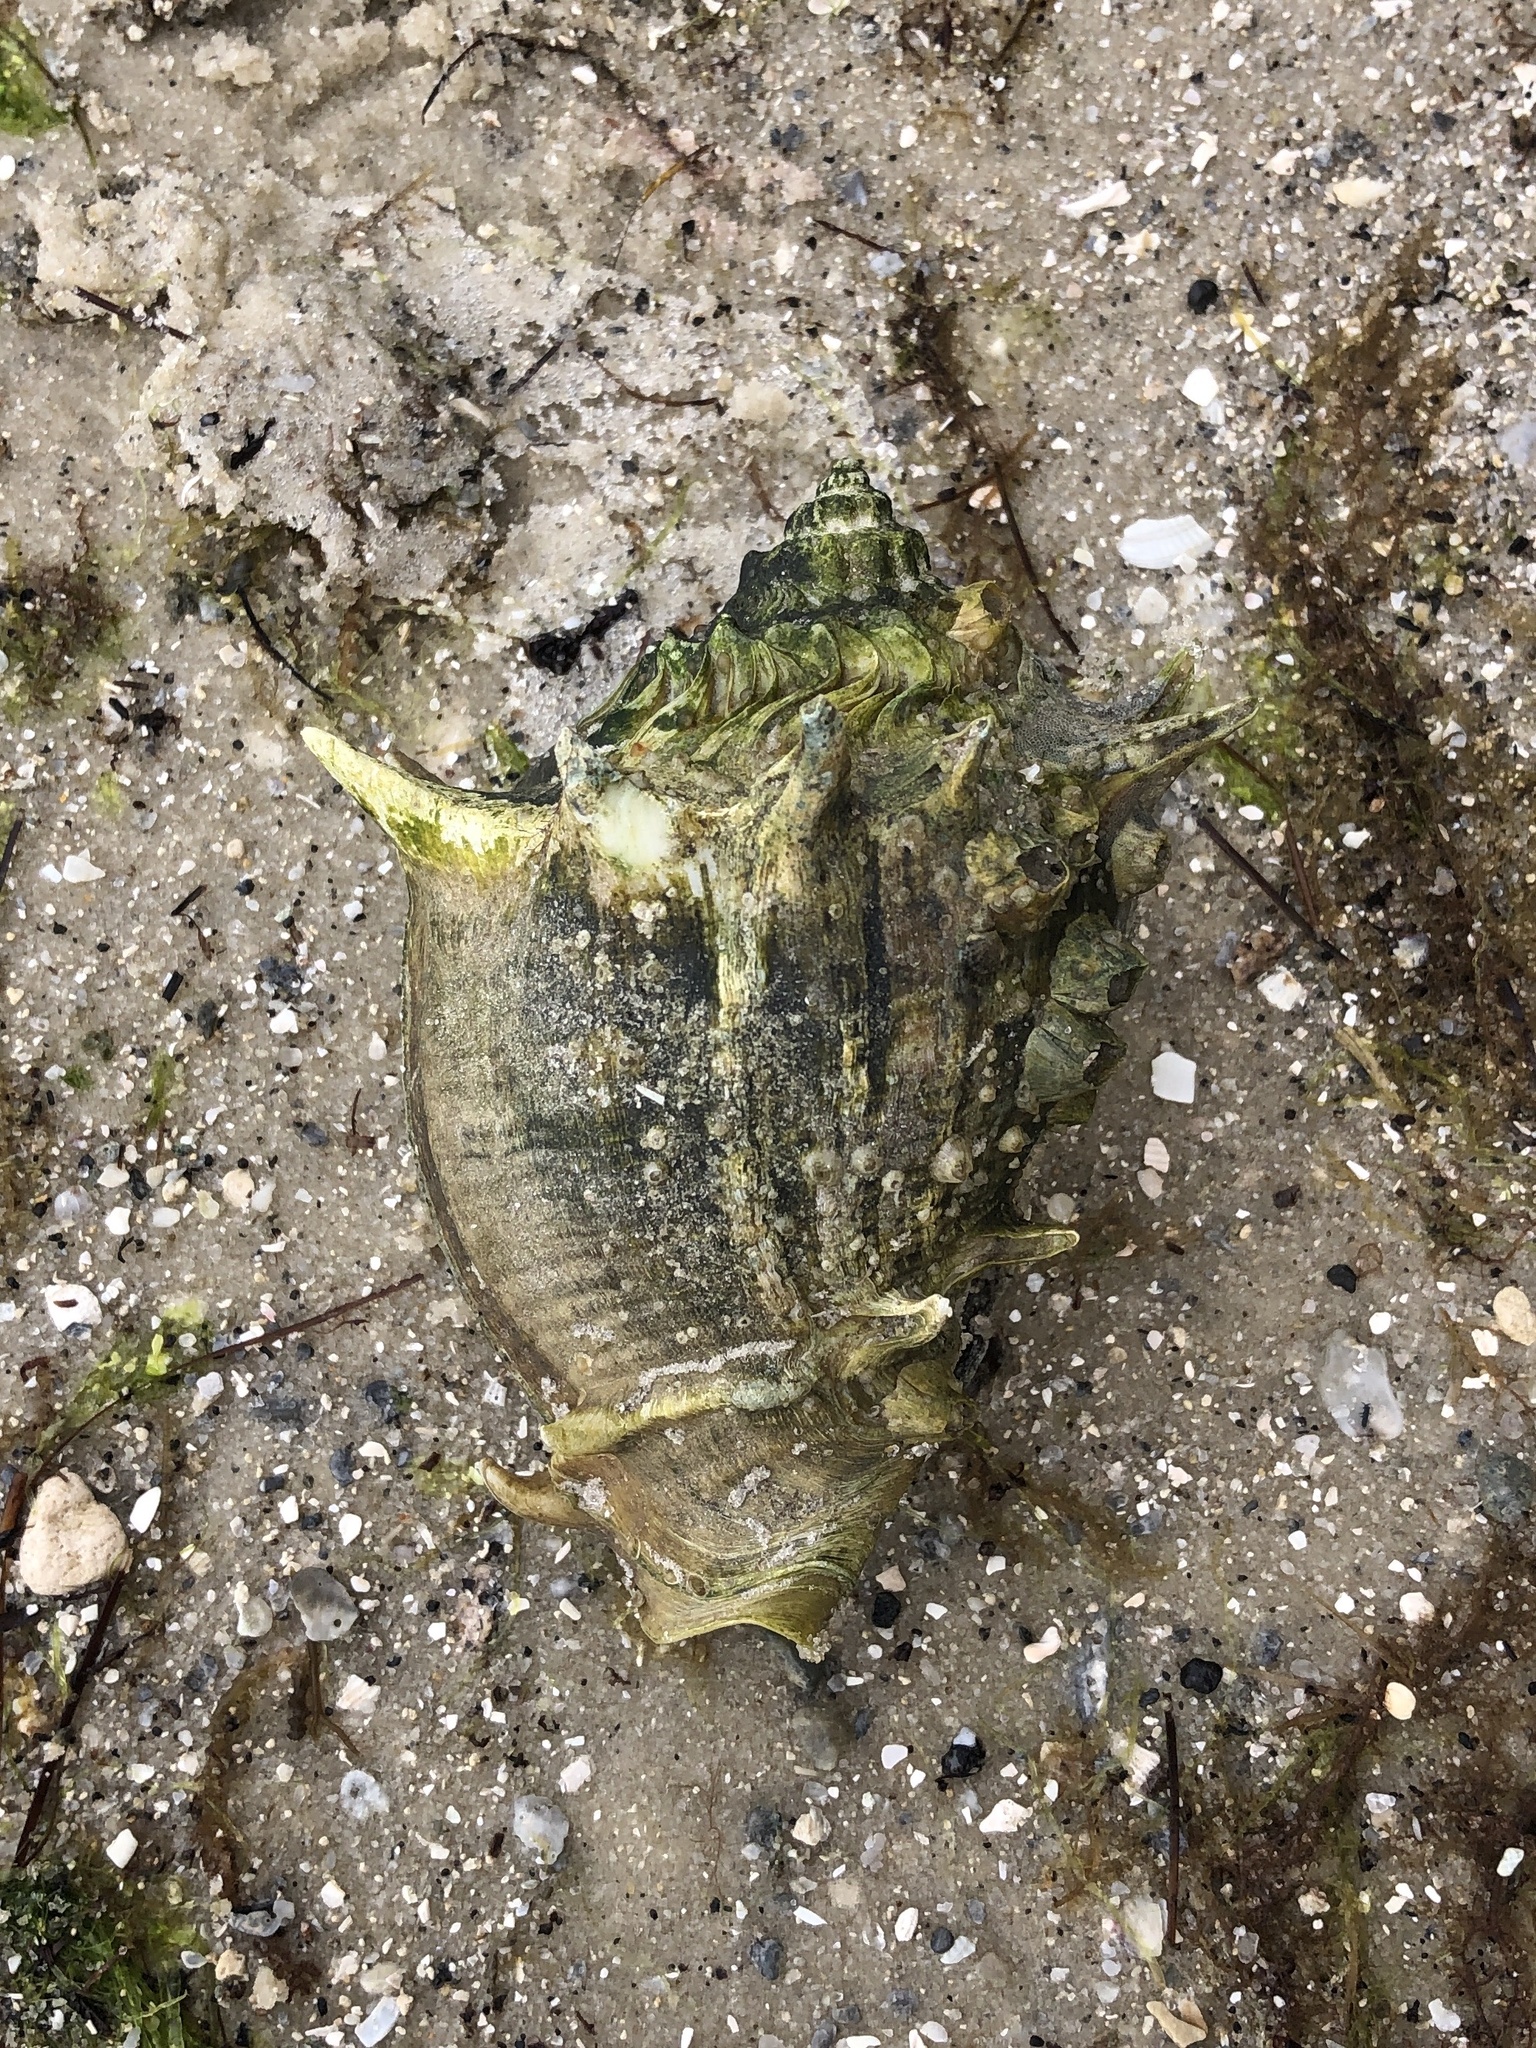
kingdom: Animalia
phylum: Mollusca
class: Gastropoda
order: Neogastropoda
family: Melongenidae
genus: Melongena
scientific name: Melongena corona
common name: American crown conch
